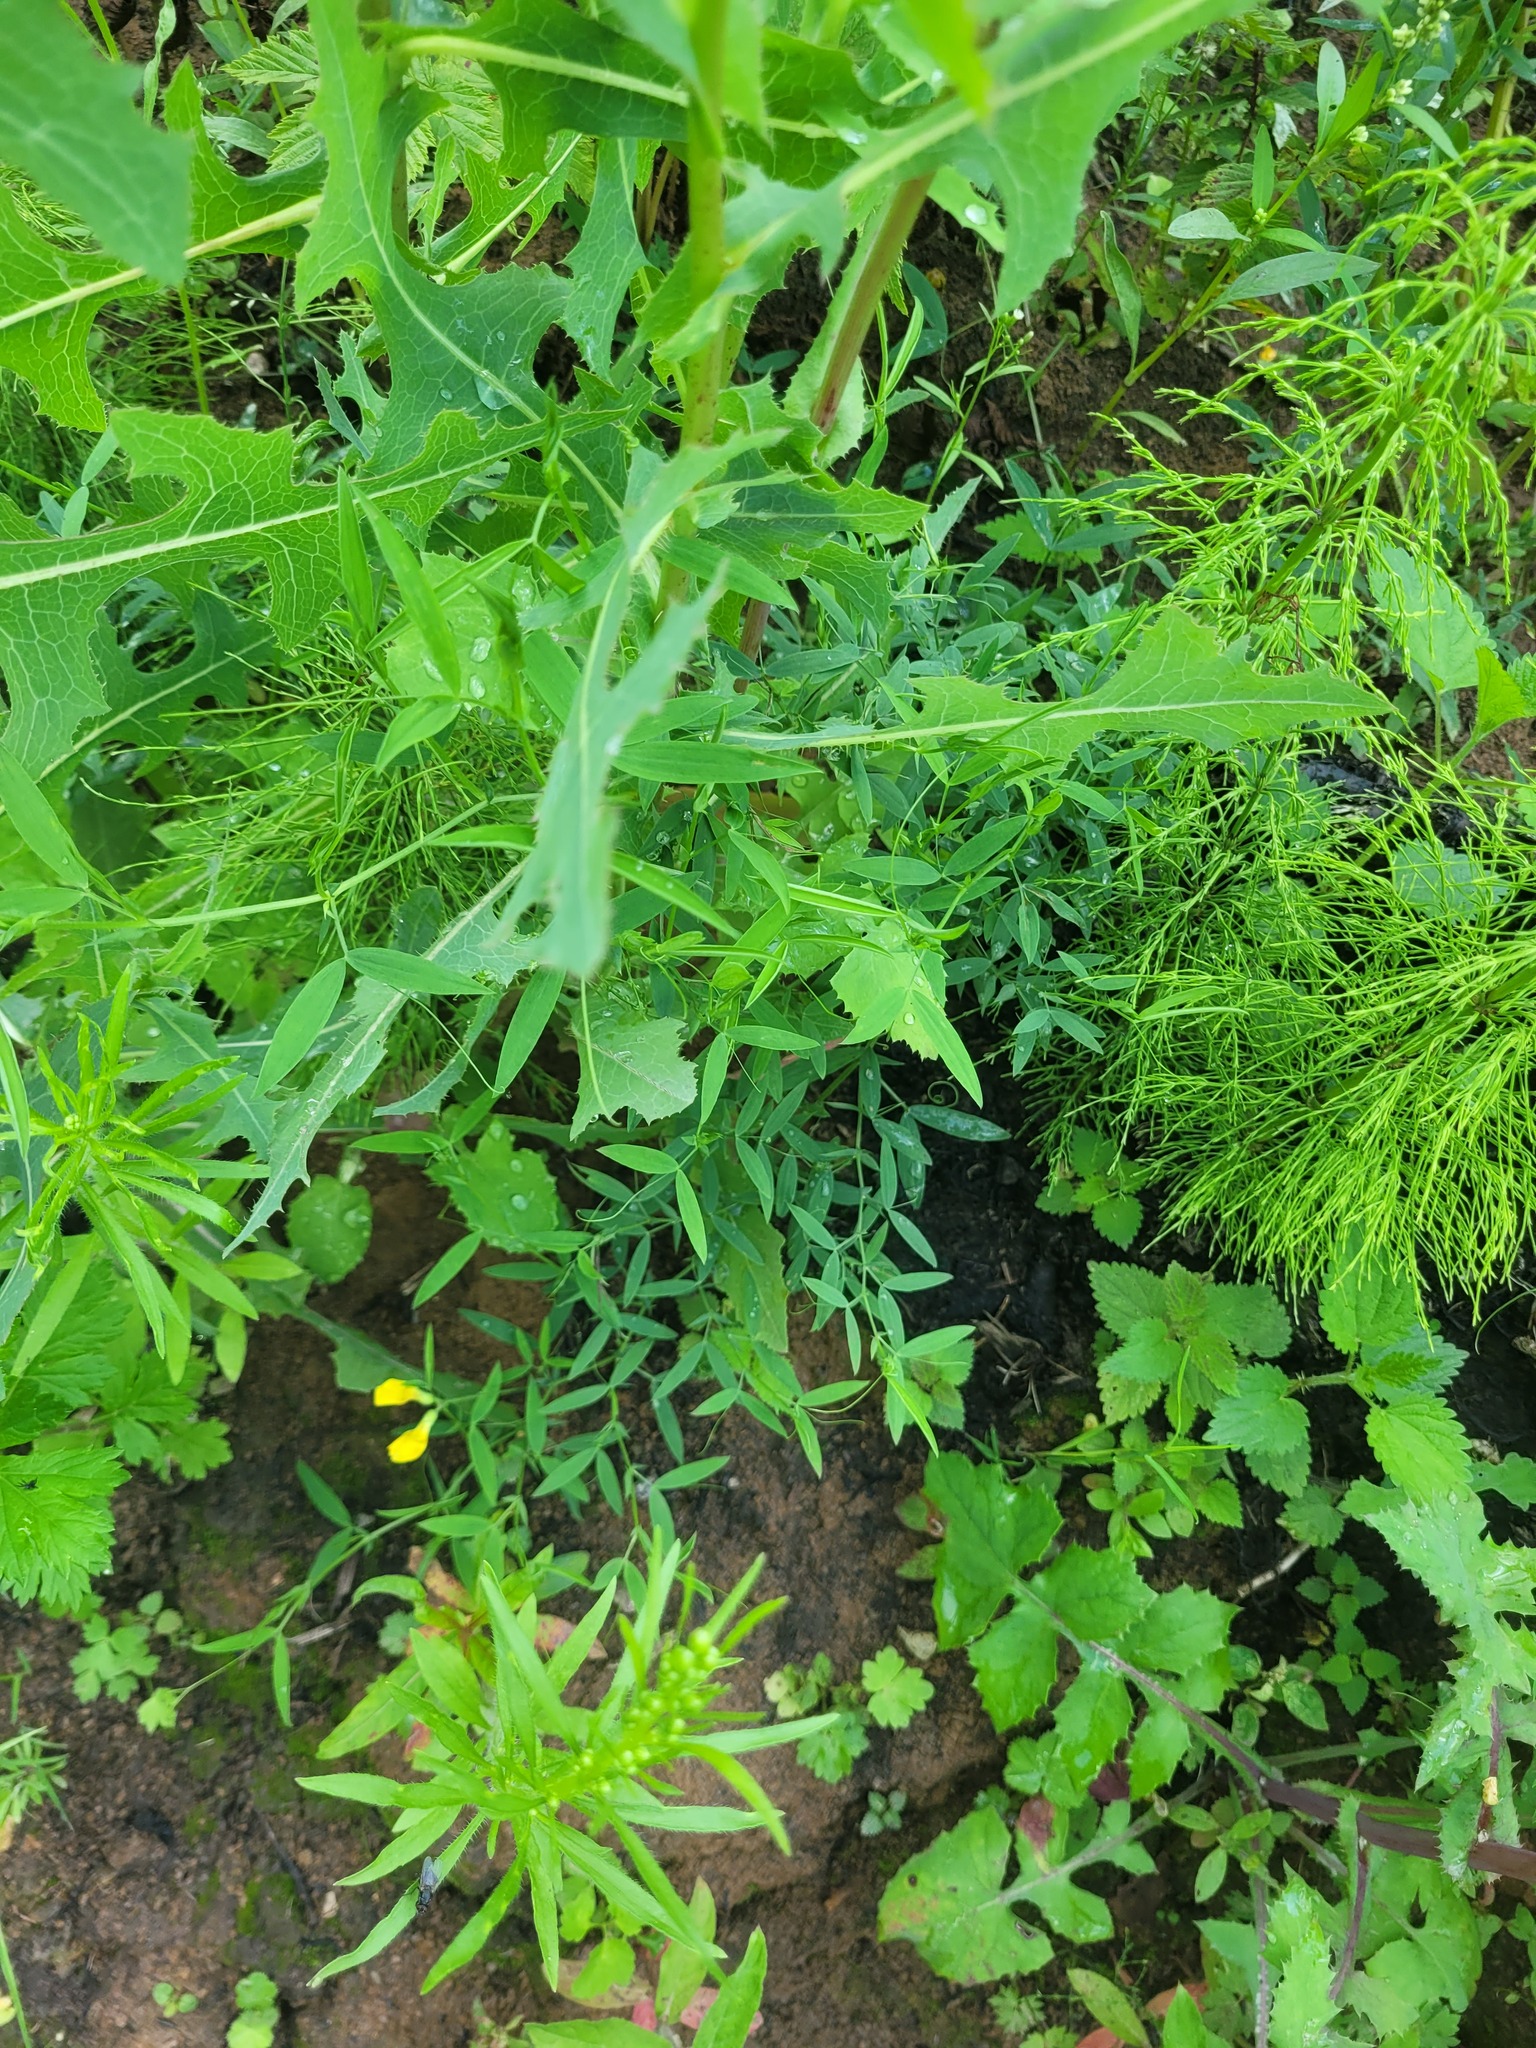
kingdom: Plantae
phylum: Tracheophyta
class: Magnoliopsida
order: Fabales
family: Fabaceae
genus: Lathyrus
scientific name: Lathyrus pratensis
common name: Meadow vetchling
